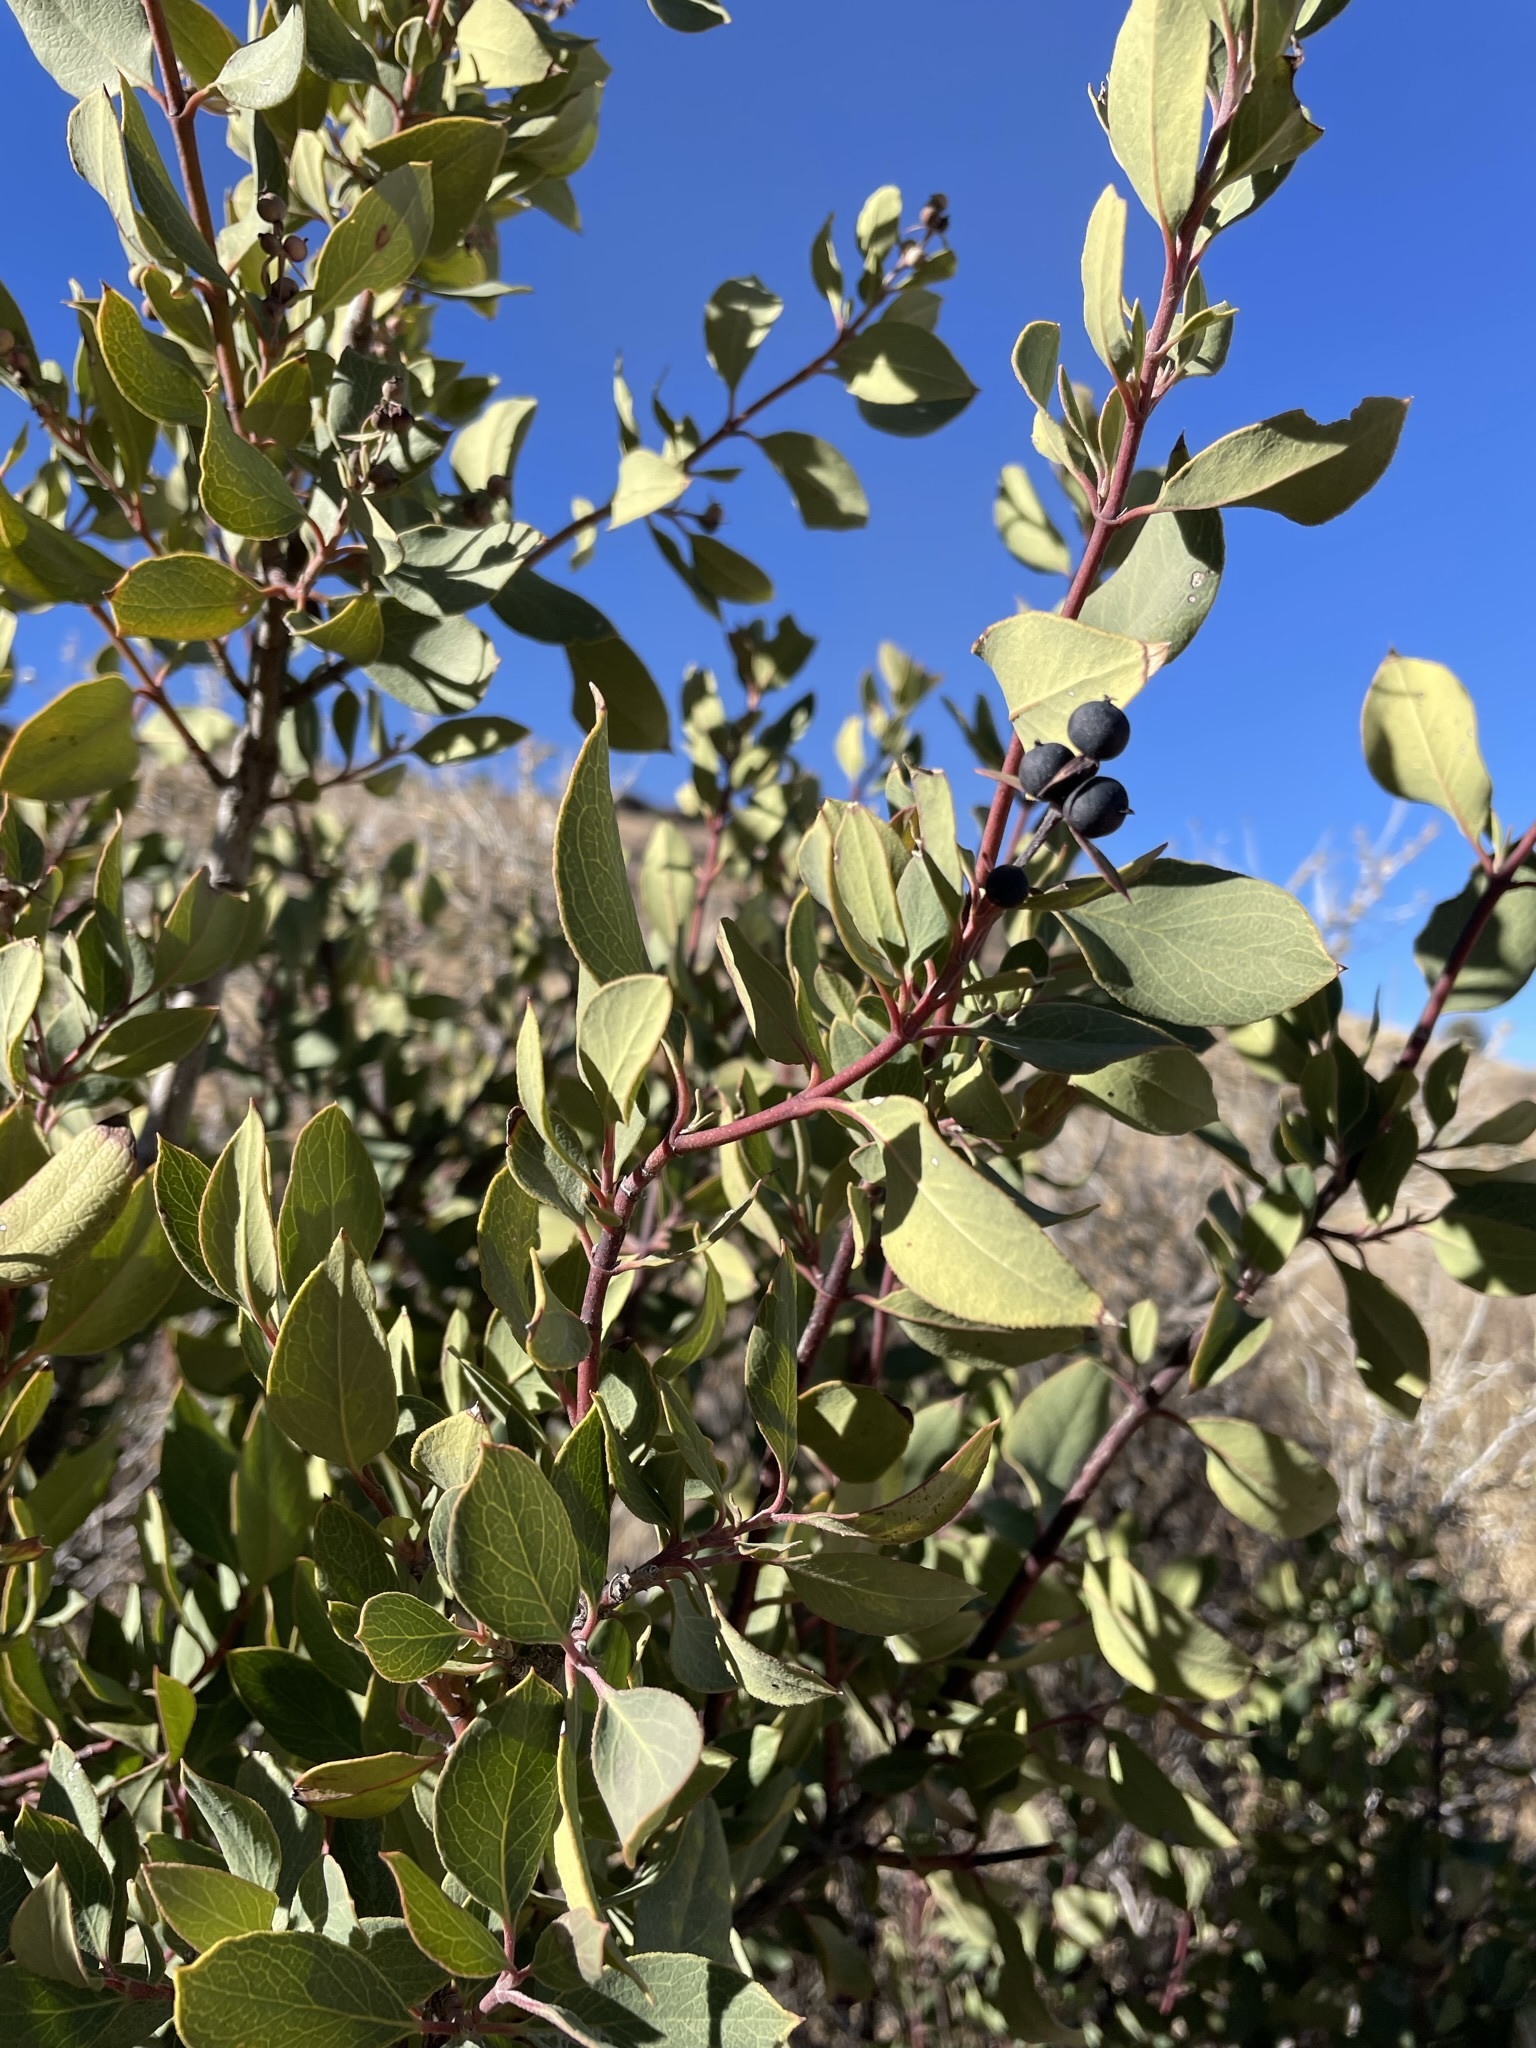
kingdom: Plantae
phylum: Tracheophyta
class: Magnoliopsida
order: Garryales
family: Garryaceae
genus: Garrya
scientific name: Garrya wrightii
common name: Wright's silktassel
